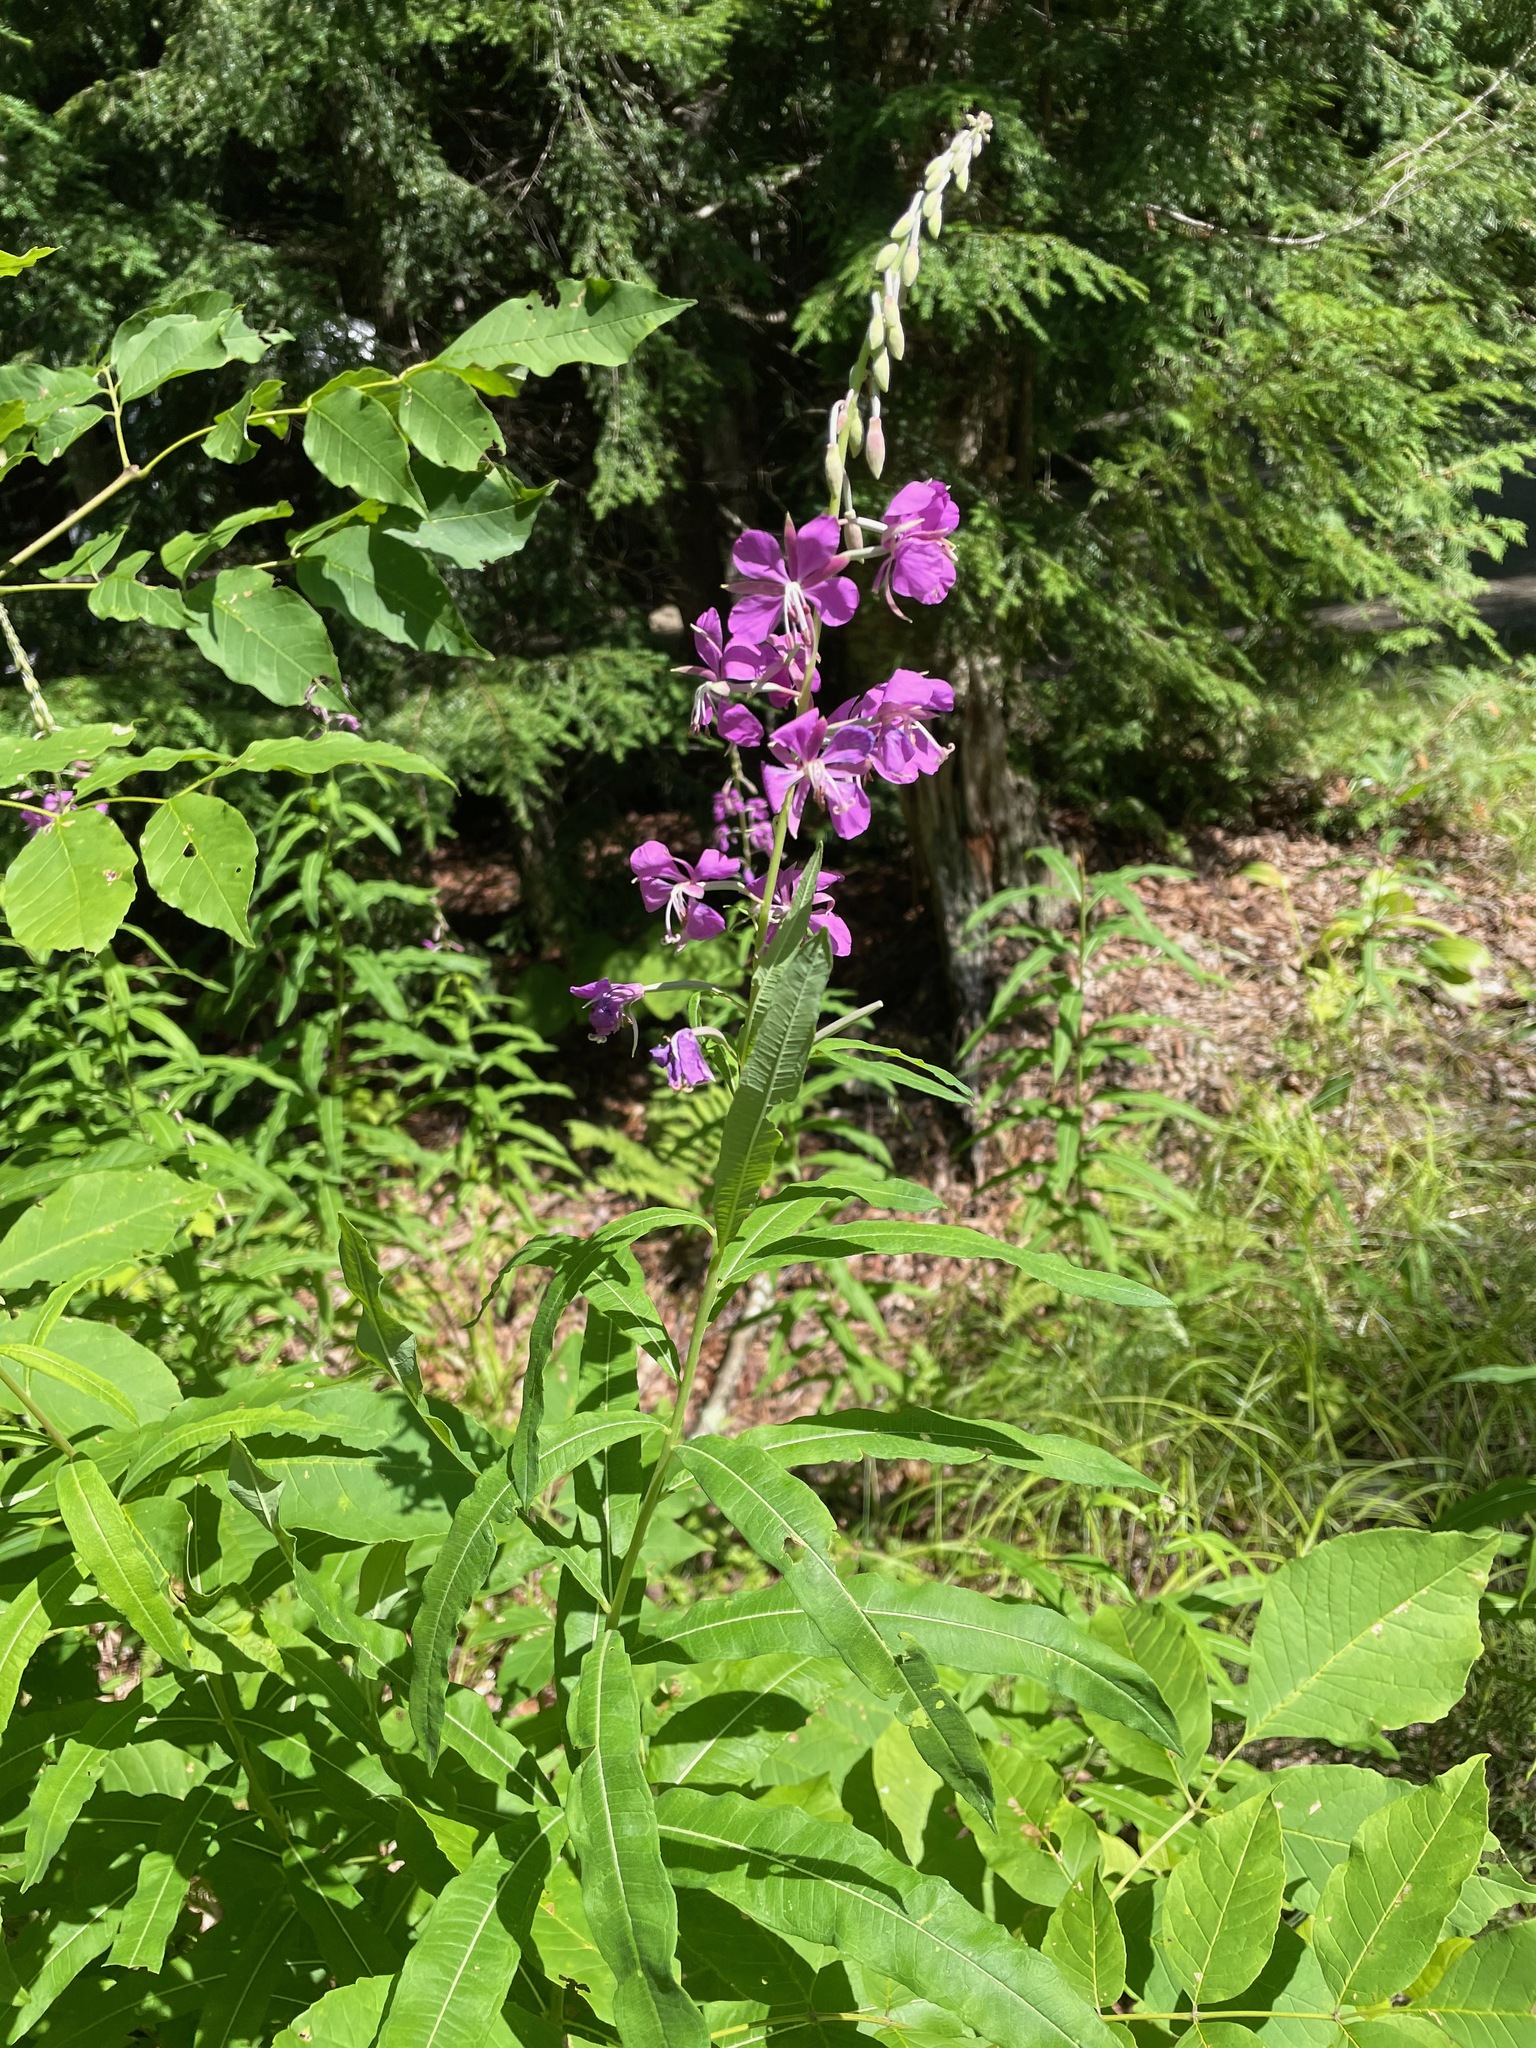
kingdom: Plantae
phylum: Tracheophyta
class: Magnoliopsida
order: Myrtales
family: Onagraceae
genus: Chamaenerion
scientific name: Chamaenerion angustifolium
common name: Fireweed
